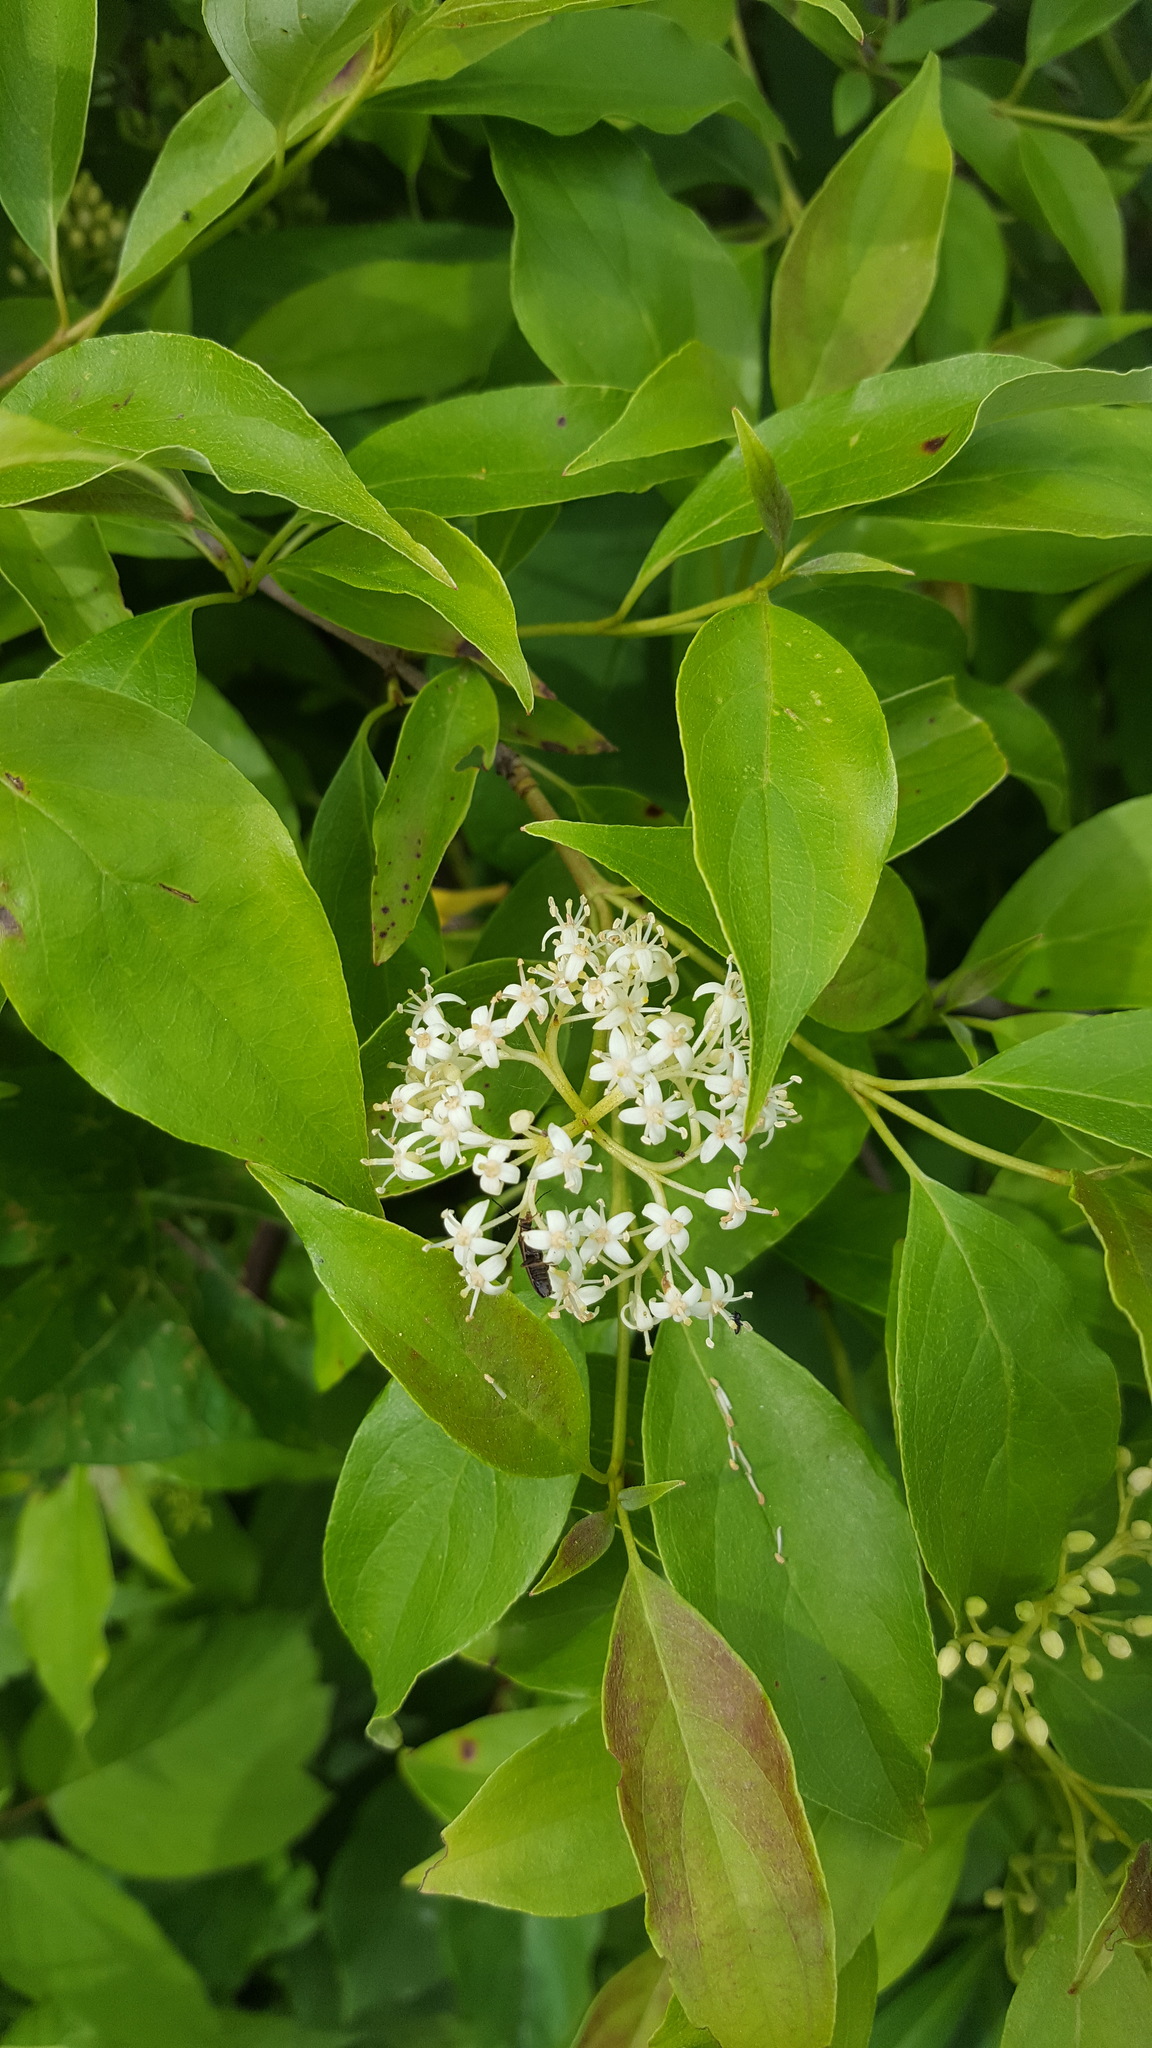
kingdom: Plantae
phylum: Tracheophyta
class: Magnoliopsida
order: Cornales
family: Cornaceae
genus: Cornus
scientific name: Cornus racemosa
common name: Panicled dogwood
